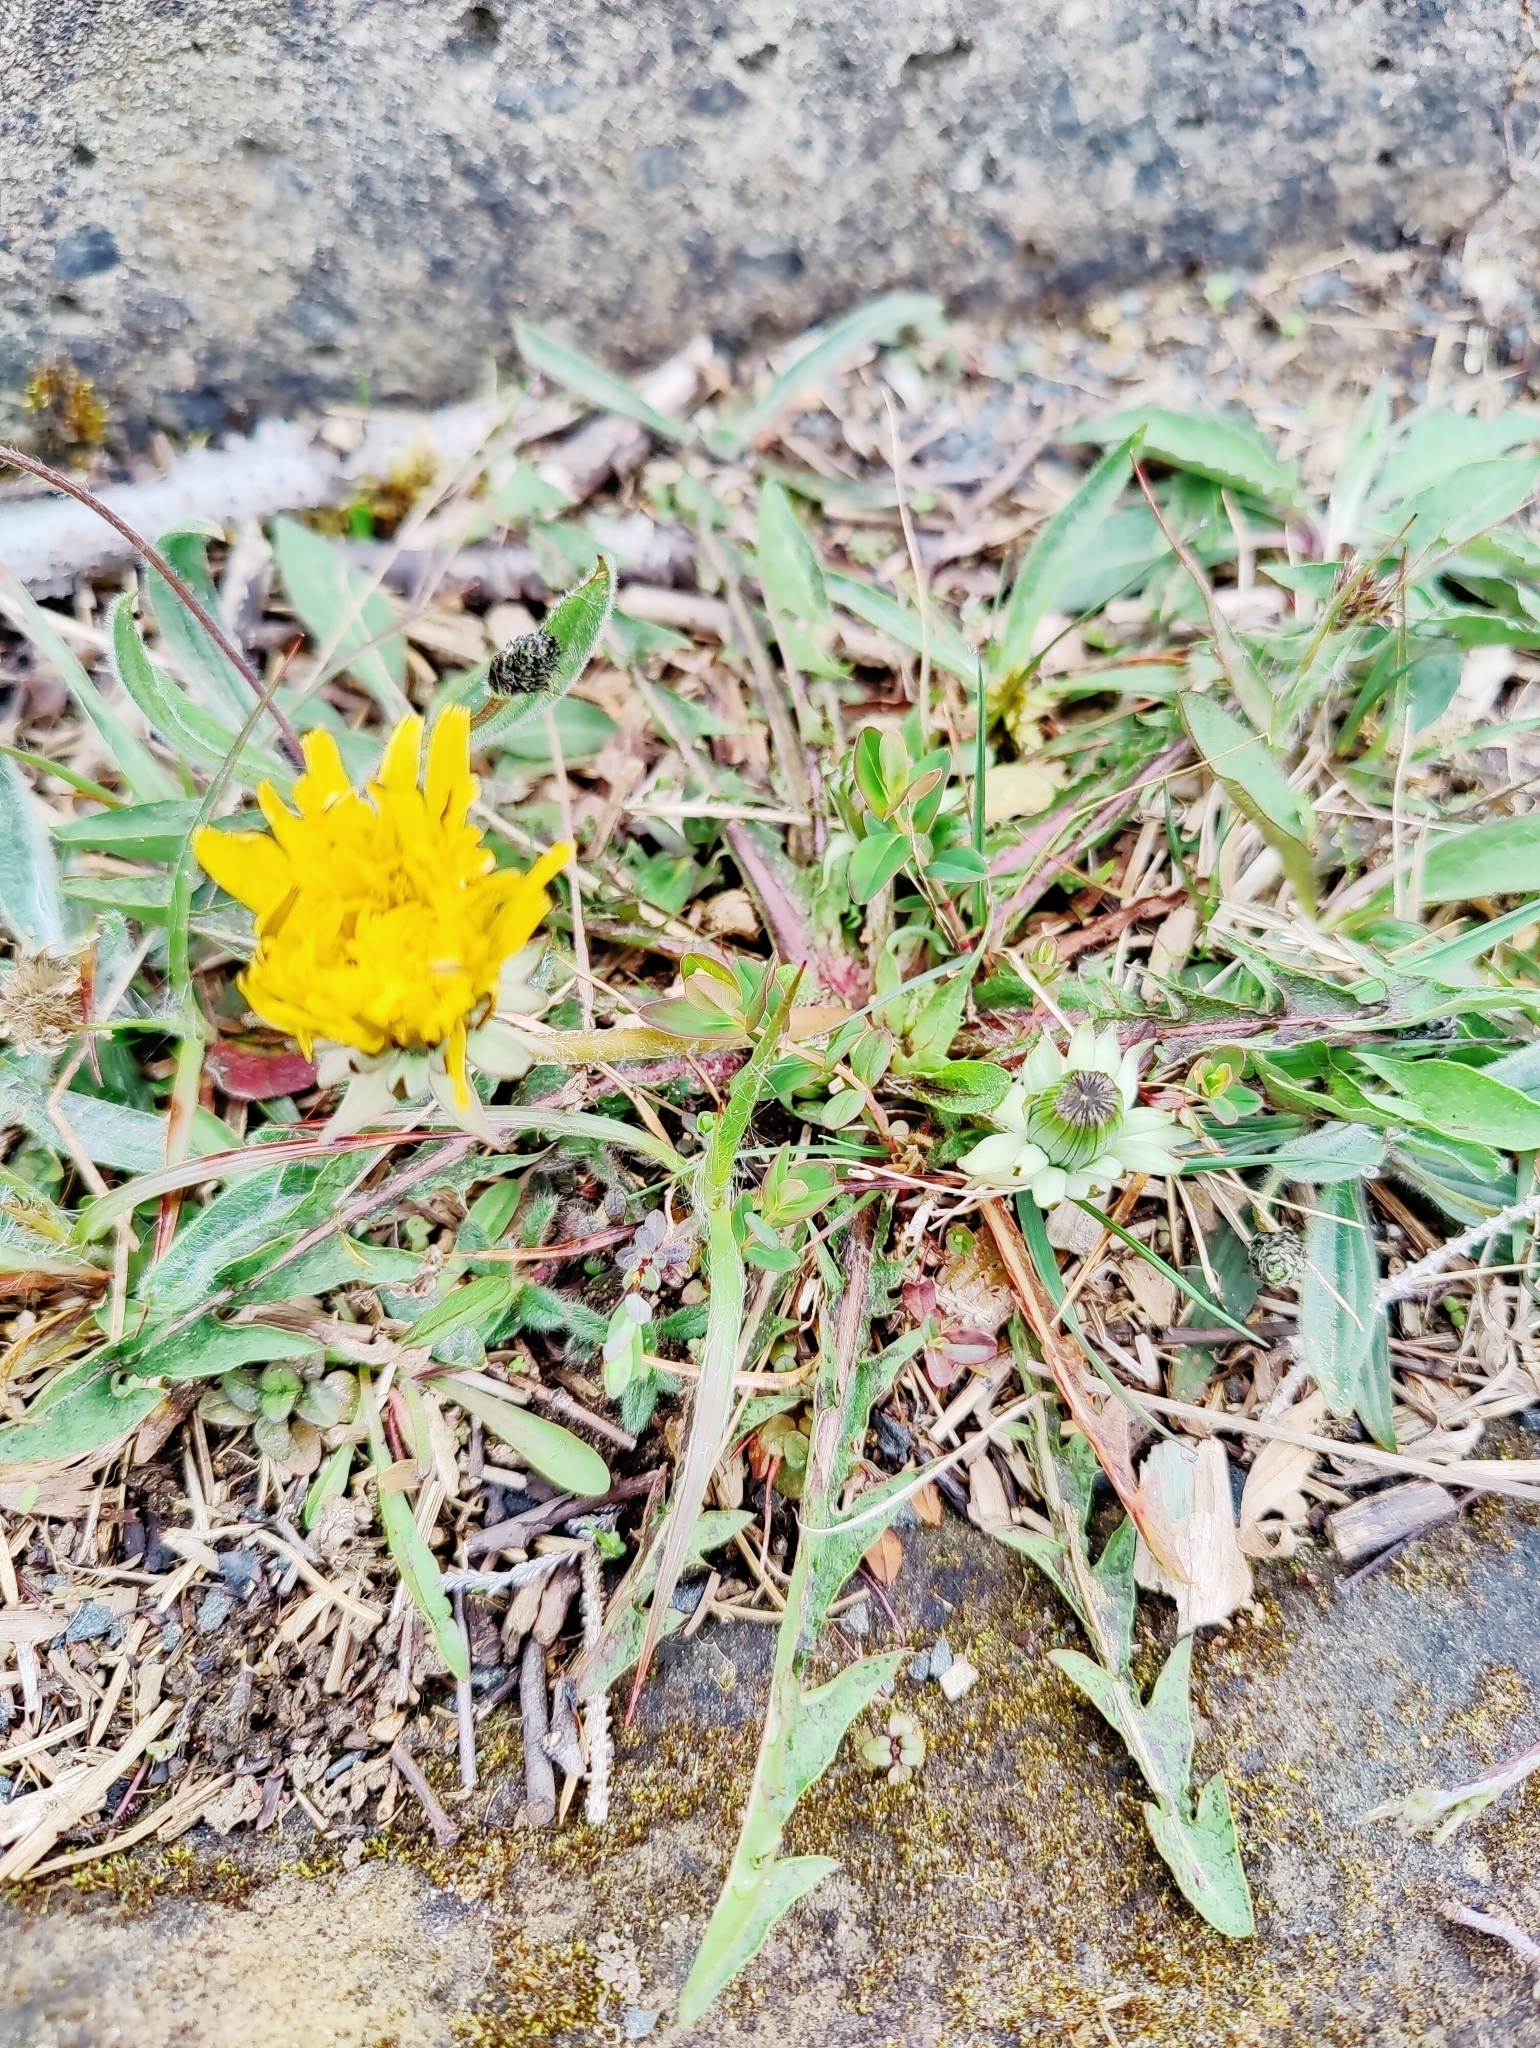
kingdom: Plantae
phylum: Tracheophyta
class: Magnoliopsida
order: Asterales
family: Asteraceae
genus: Taraxacum
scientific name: Taraxacum officinale
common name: Common dandelion
